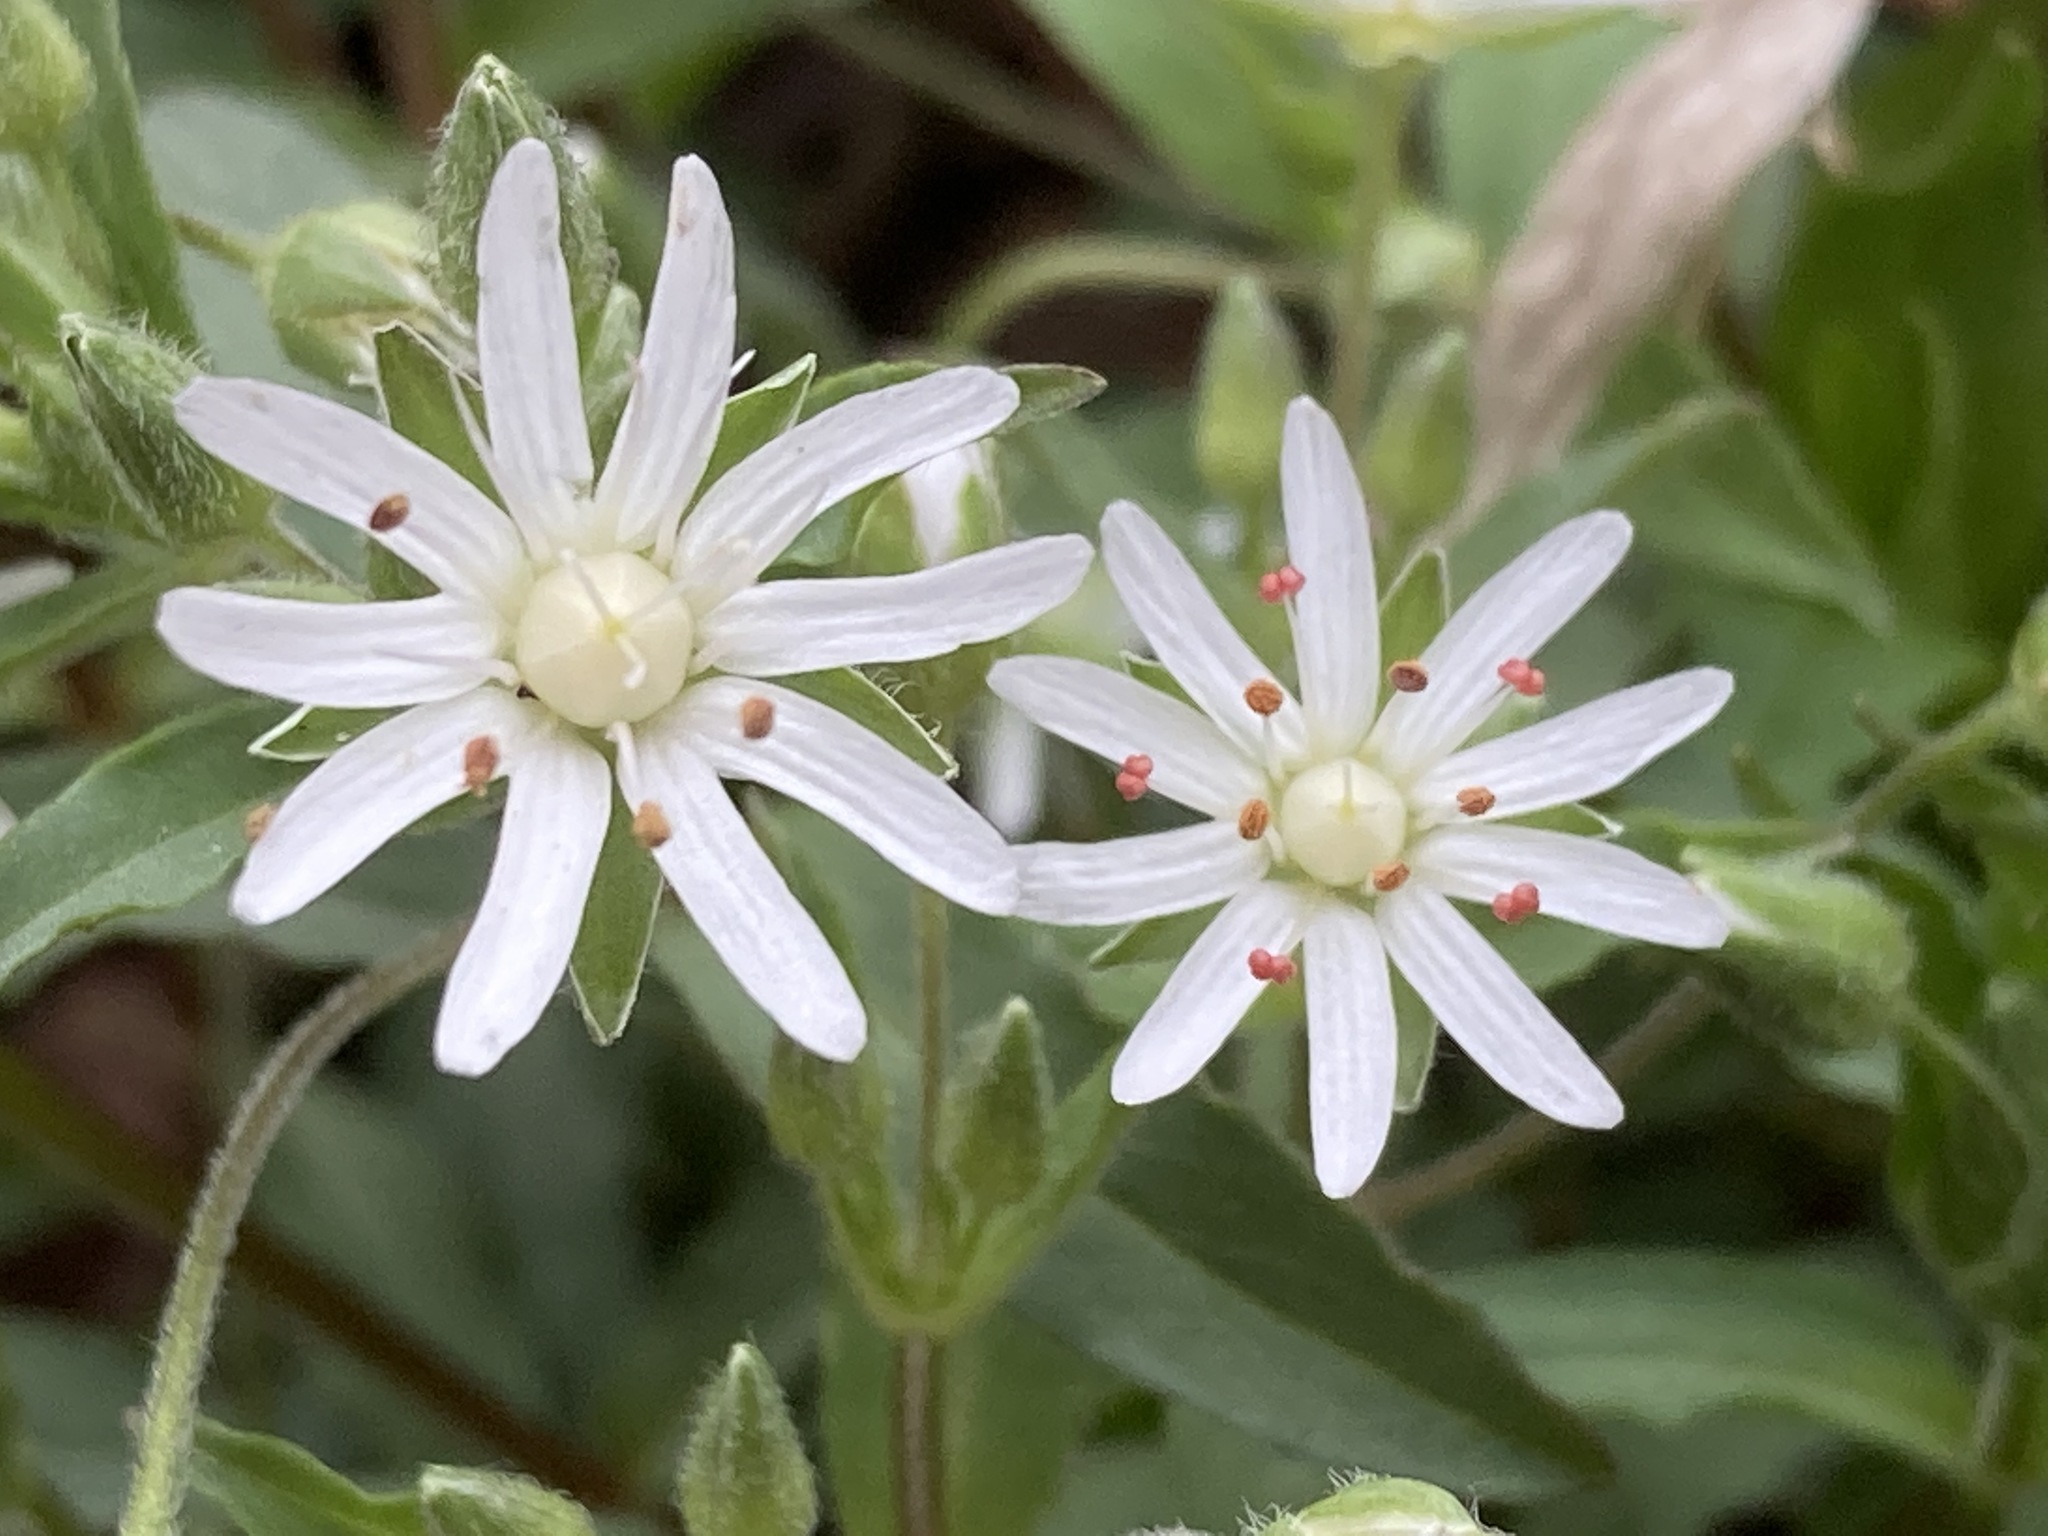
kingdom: Plantae
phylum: Tracheophyta
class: Magnoliopsida
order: Caryophyllales
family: Caryophyllaceae
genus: Stellaria
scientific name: Stellaria pubera
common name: Star chickweed
